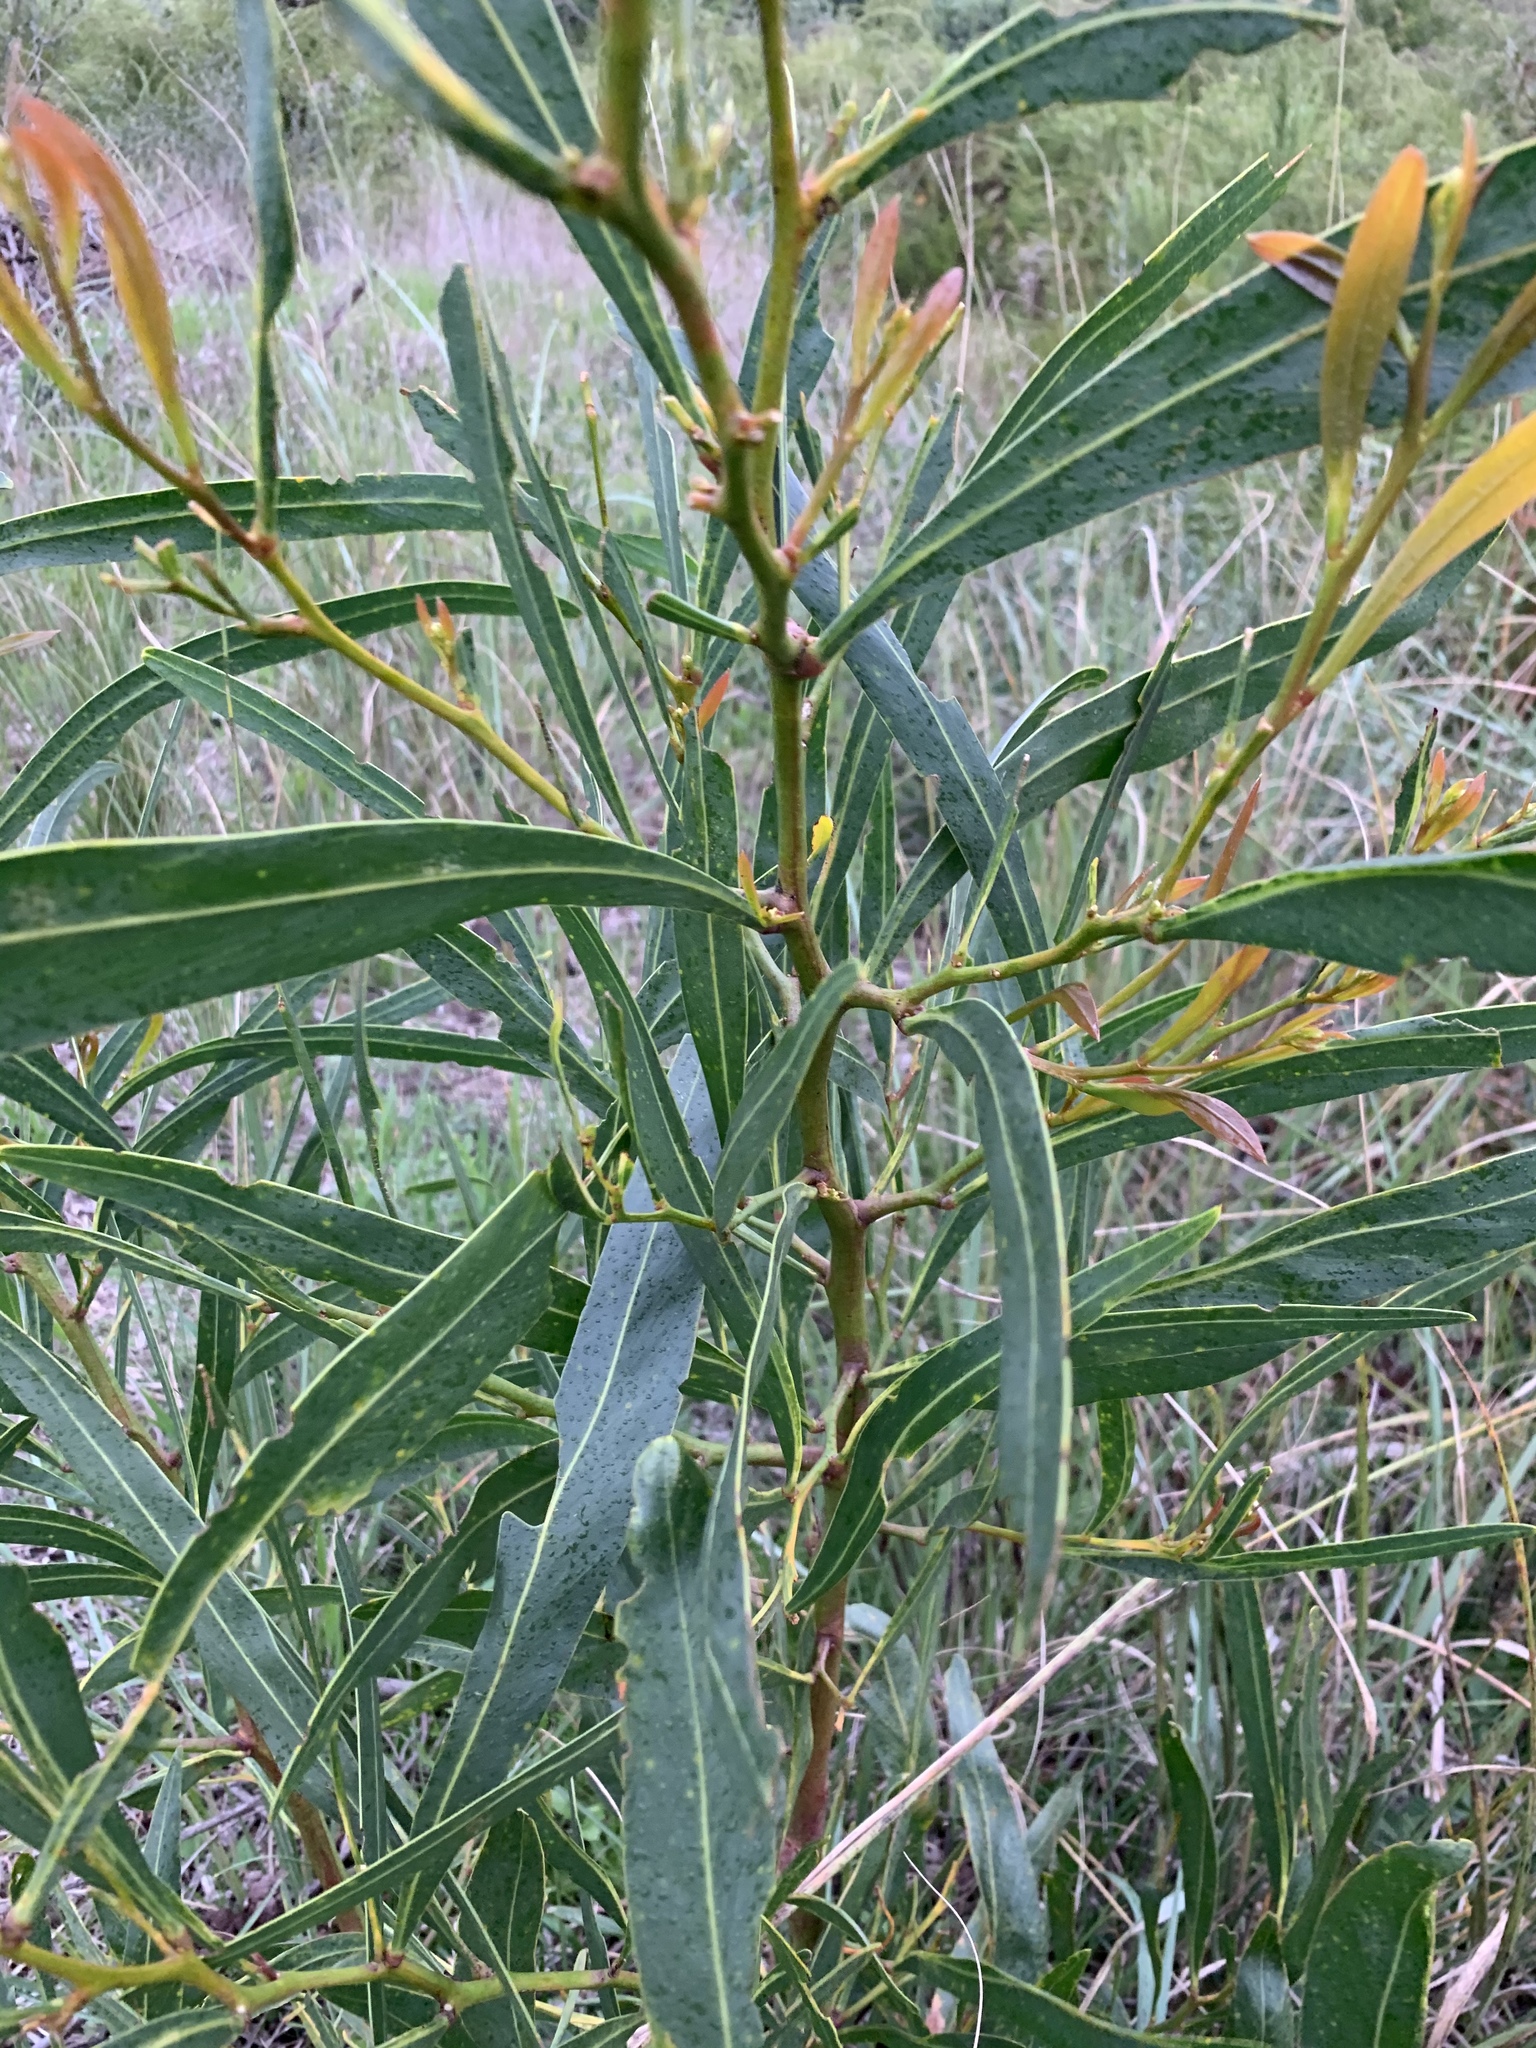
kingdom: Plantae
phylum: Tracheophyta
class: Magnoliopsida
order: Fabales
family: Fabaceae
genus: Acacia
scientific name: Acacia saligna
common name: Orange wattle
